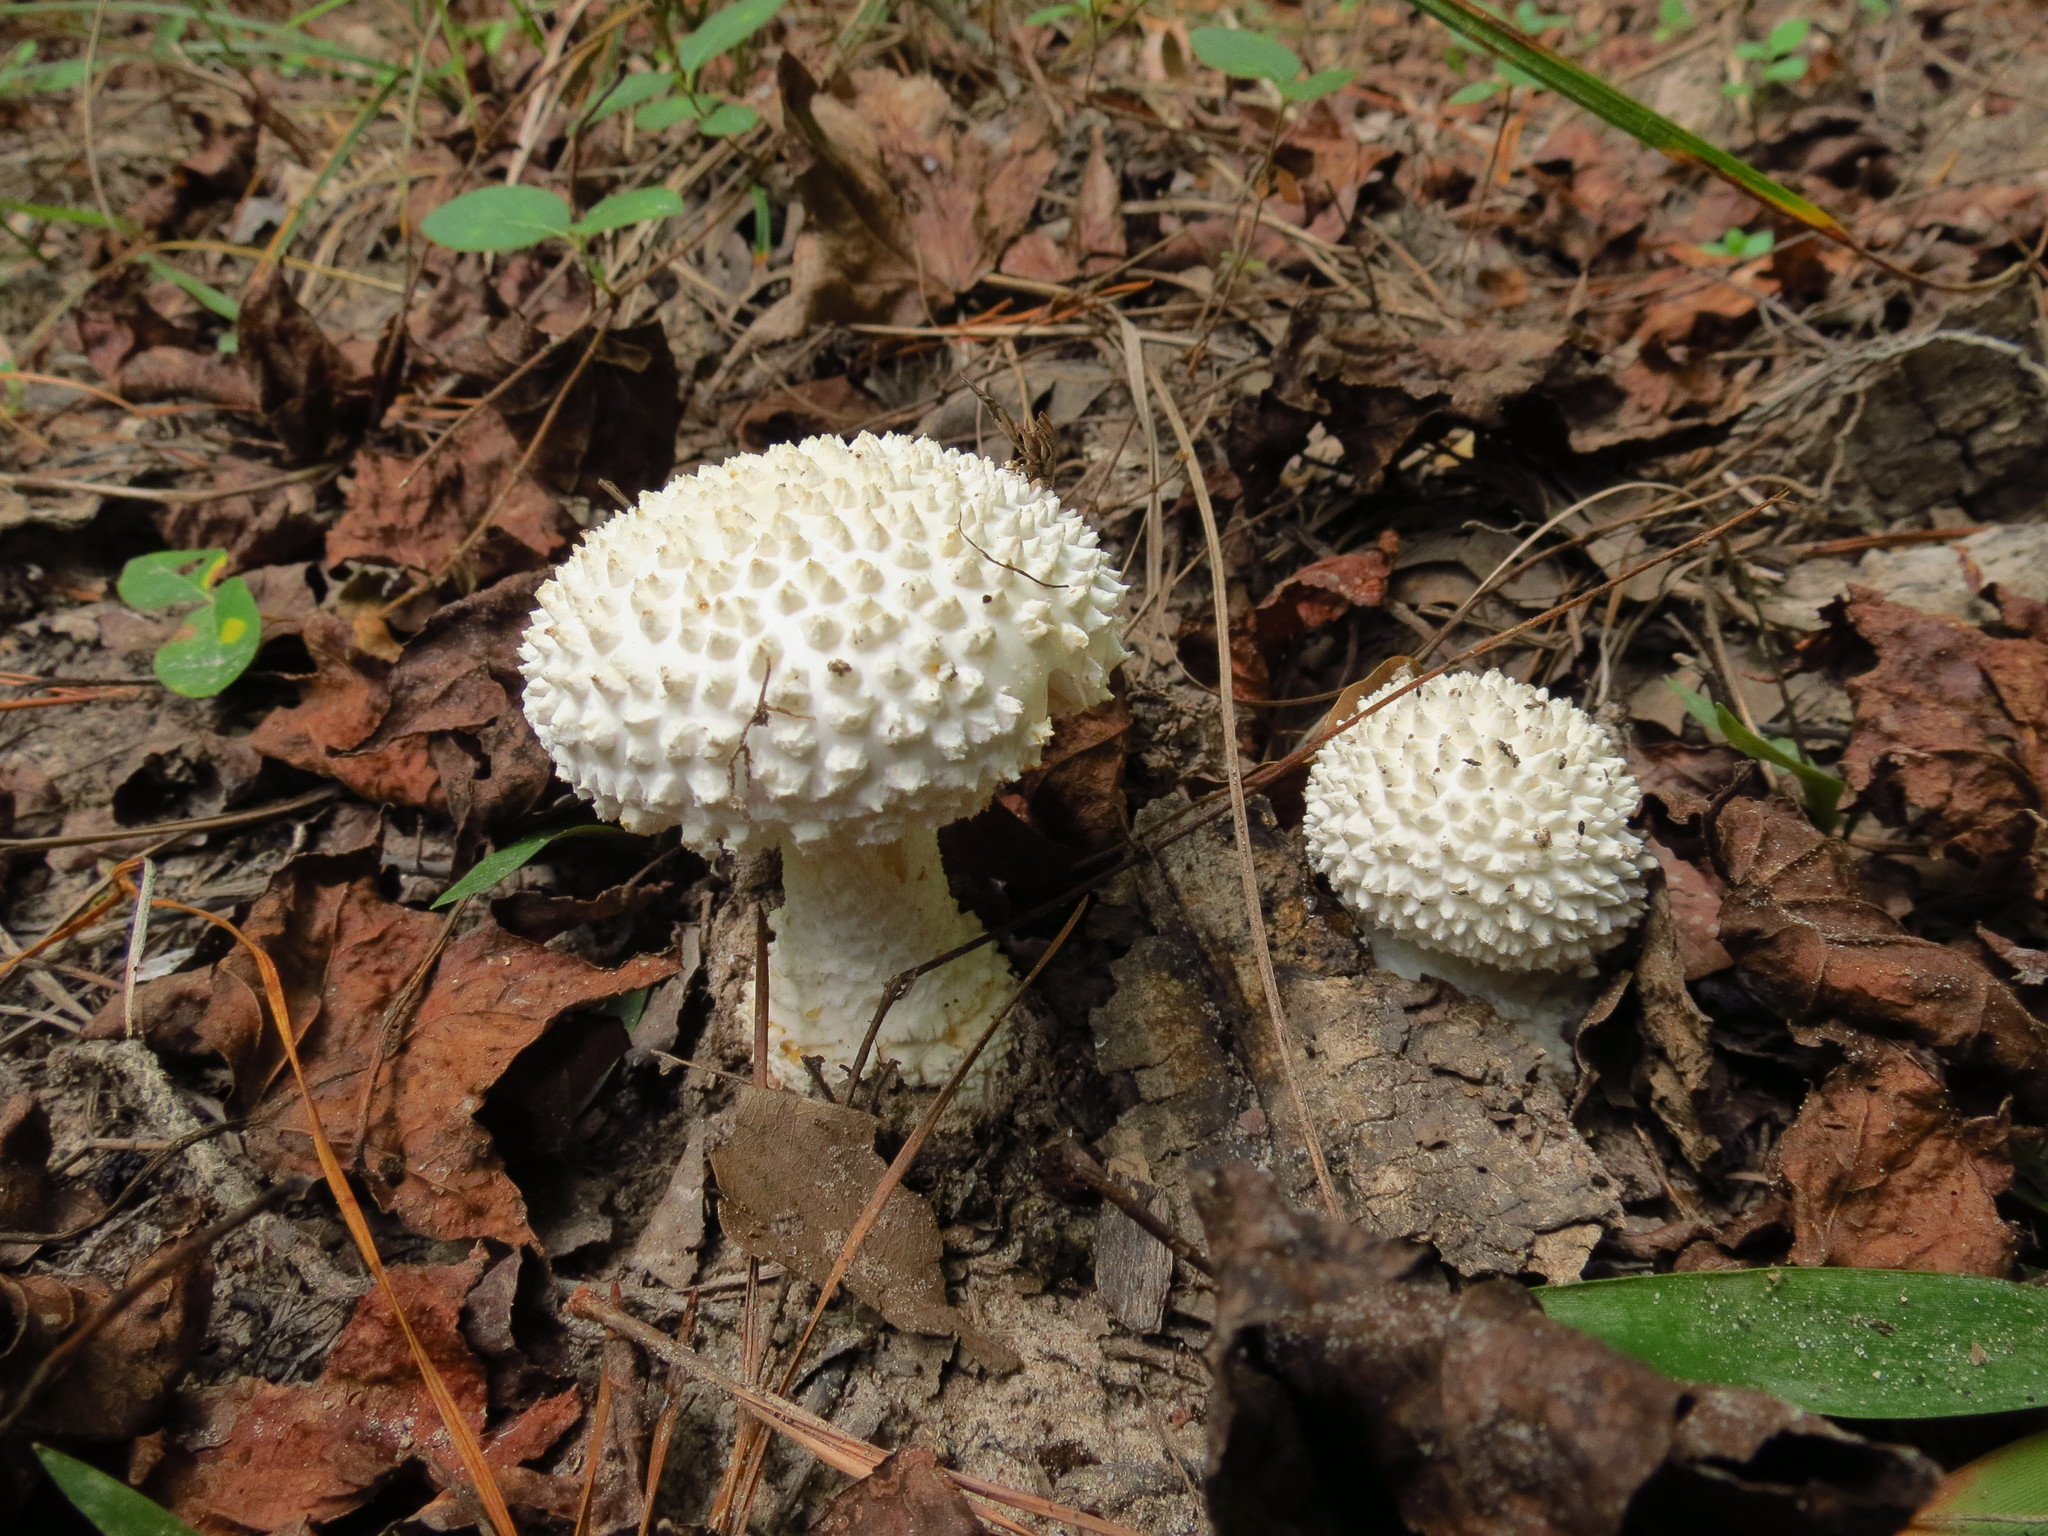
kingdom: Fungi
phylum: Basidiomycota
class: Agaricomycetes
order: Agaricales
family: Amanitaceae
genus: Amanita
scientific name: Amanita cokeri
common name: Coker's amanita
